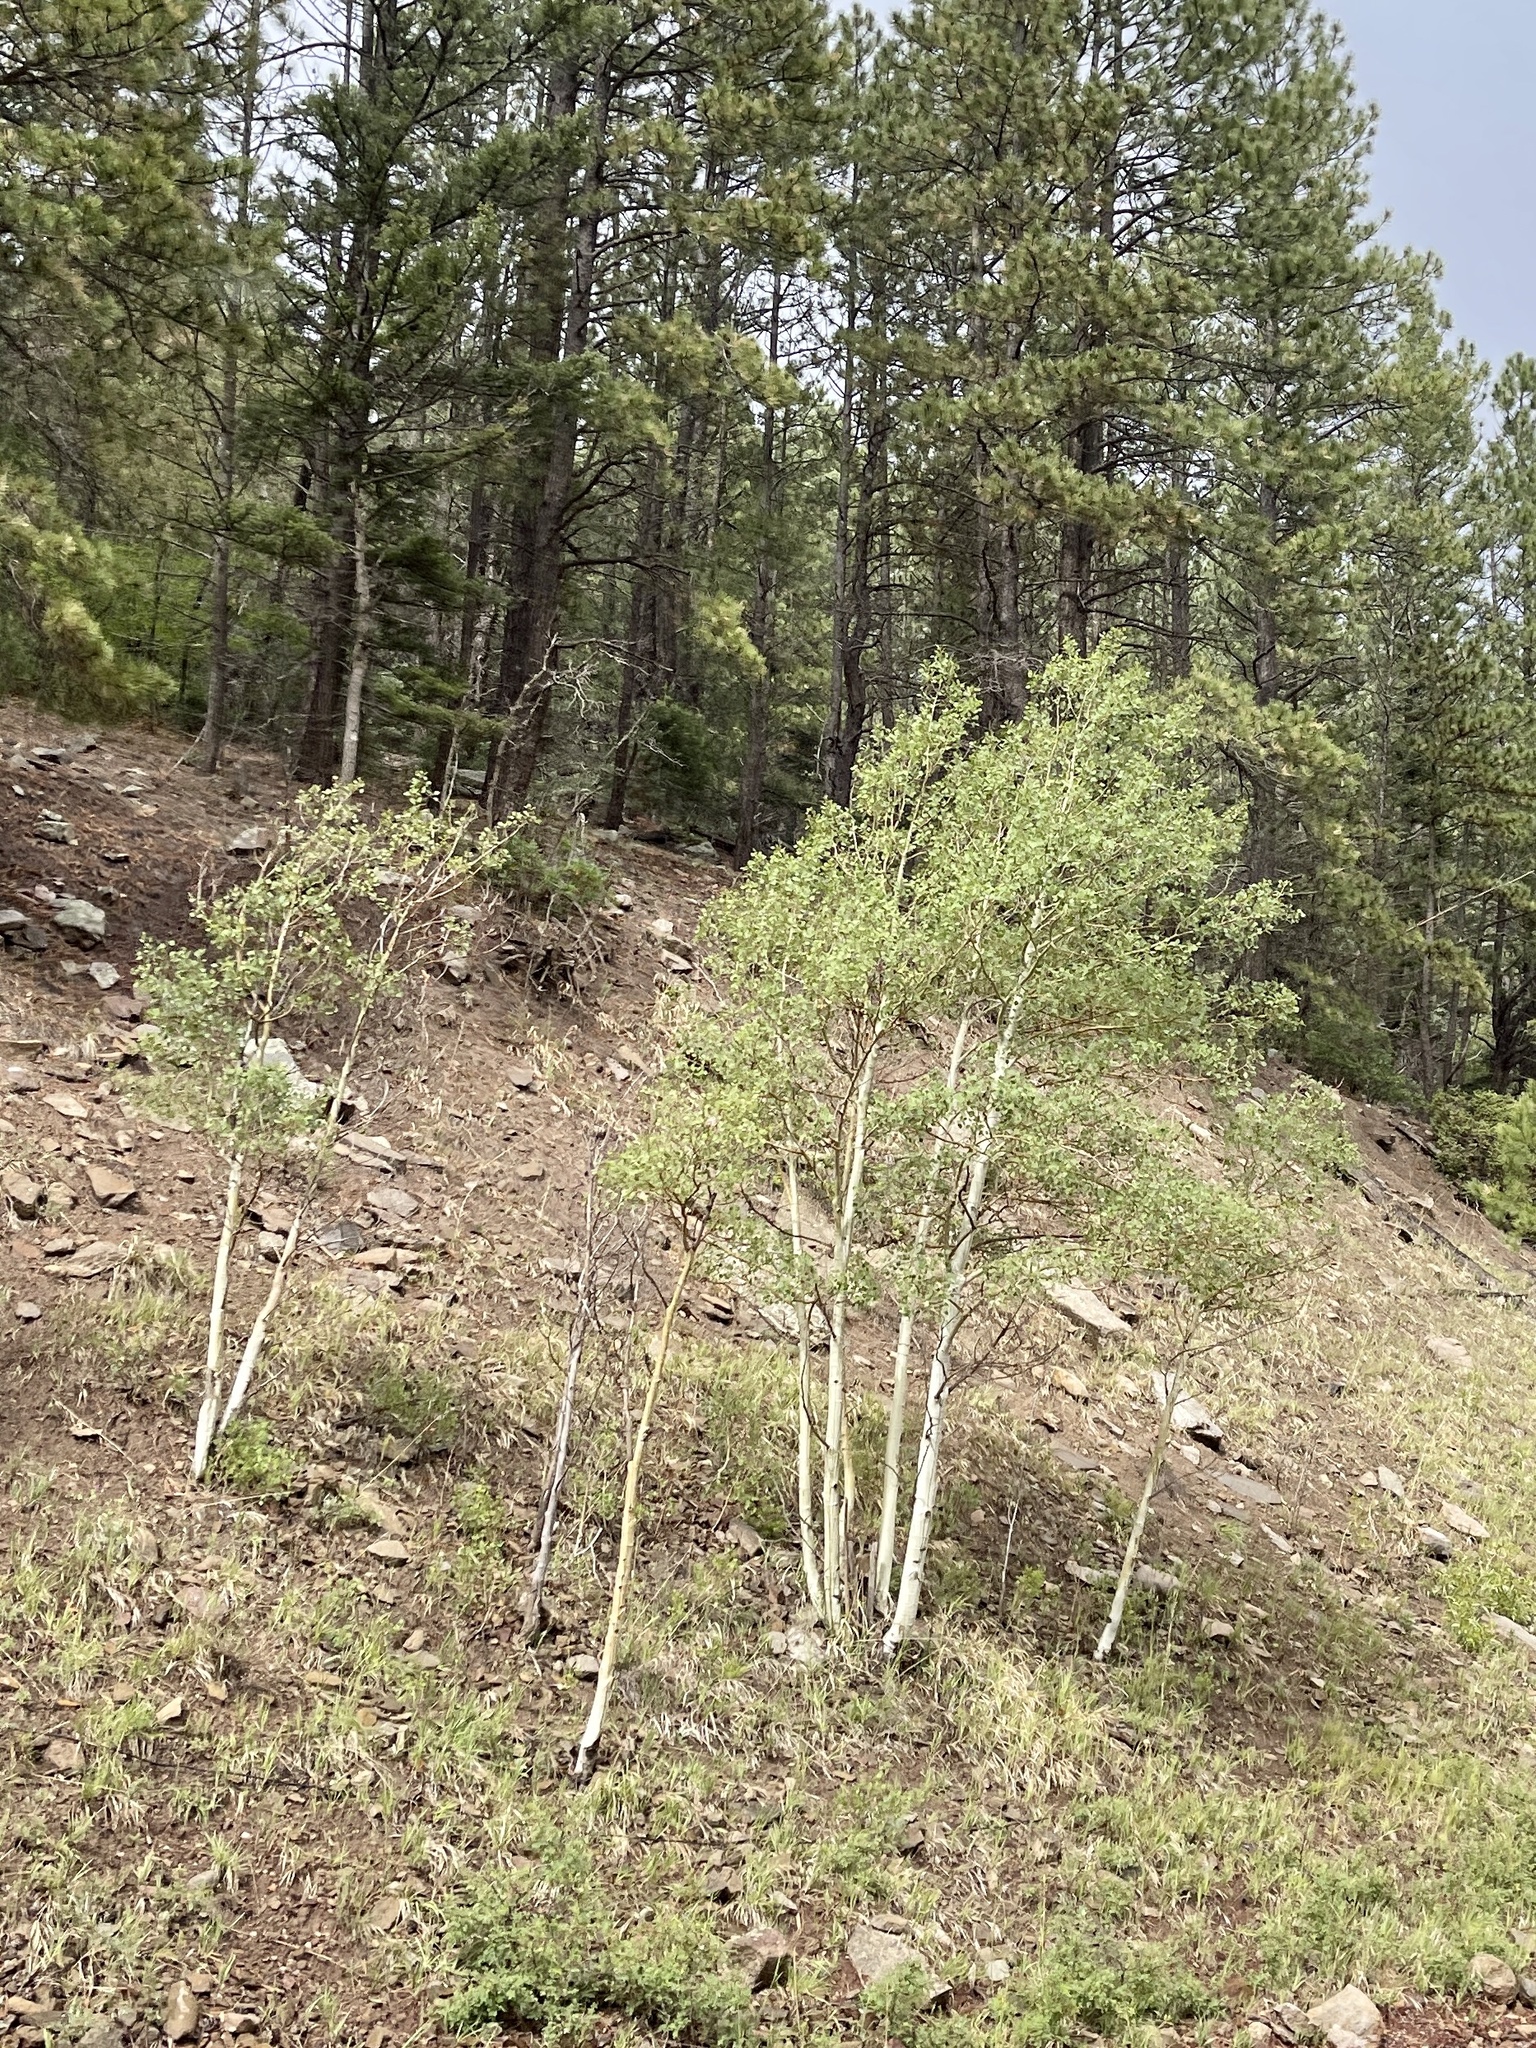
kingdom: Plantae
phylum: Tracheophyta
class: Magnoliopsida
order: Malpighiales
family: Salicaceae
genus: Populus
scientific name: Populus tremuloides
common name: Quaking aspen
